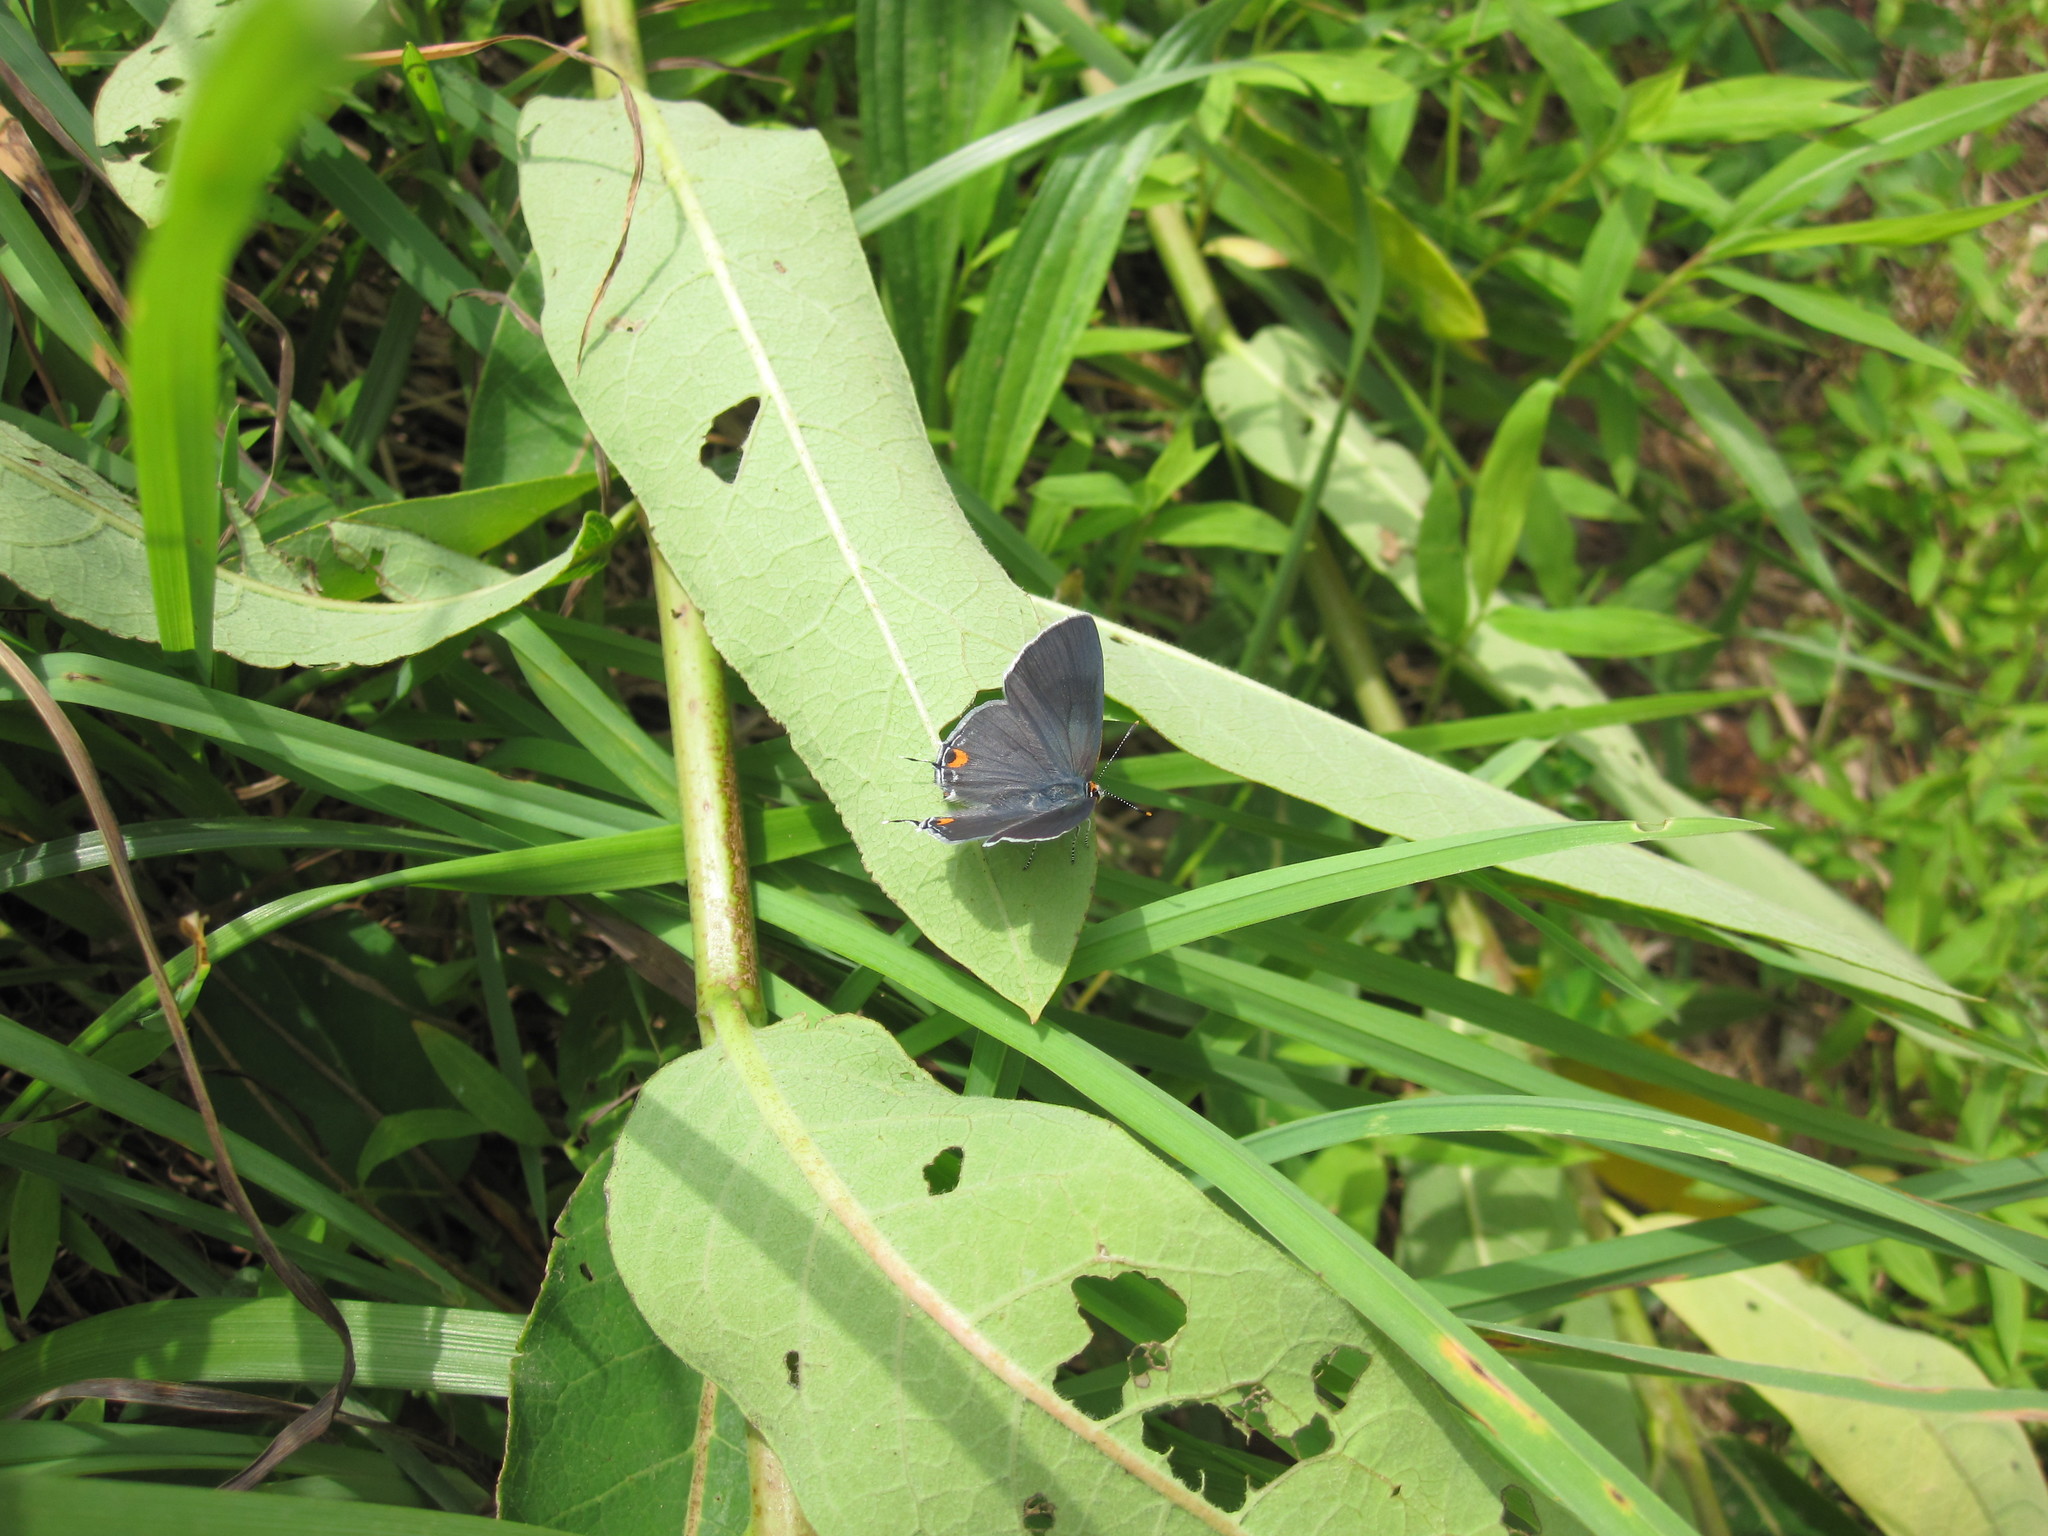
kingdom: Animalia
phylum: Arthropoda
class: Insecta
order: Lepidoptera
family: Lycaenidae
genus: Strymon
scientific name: Strymon melinus
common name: Gray hairstreak
